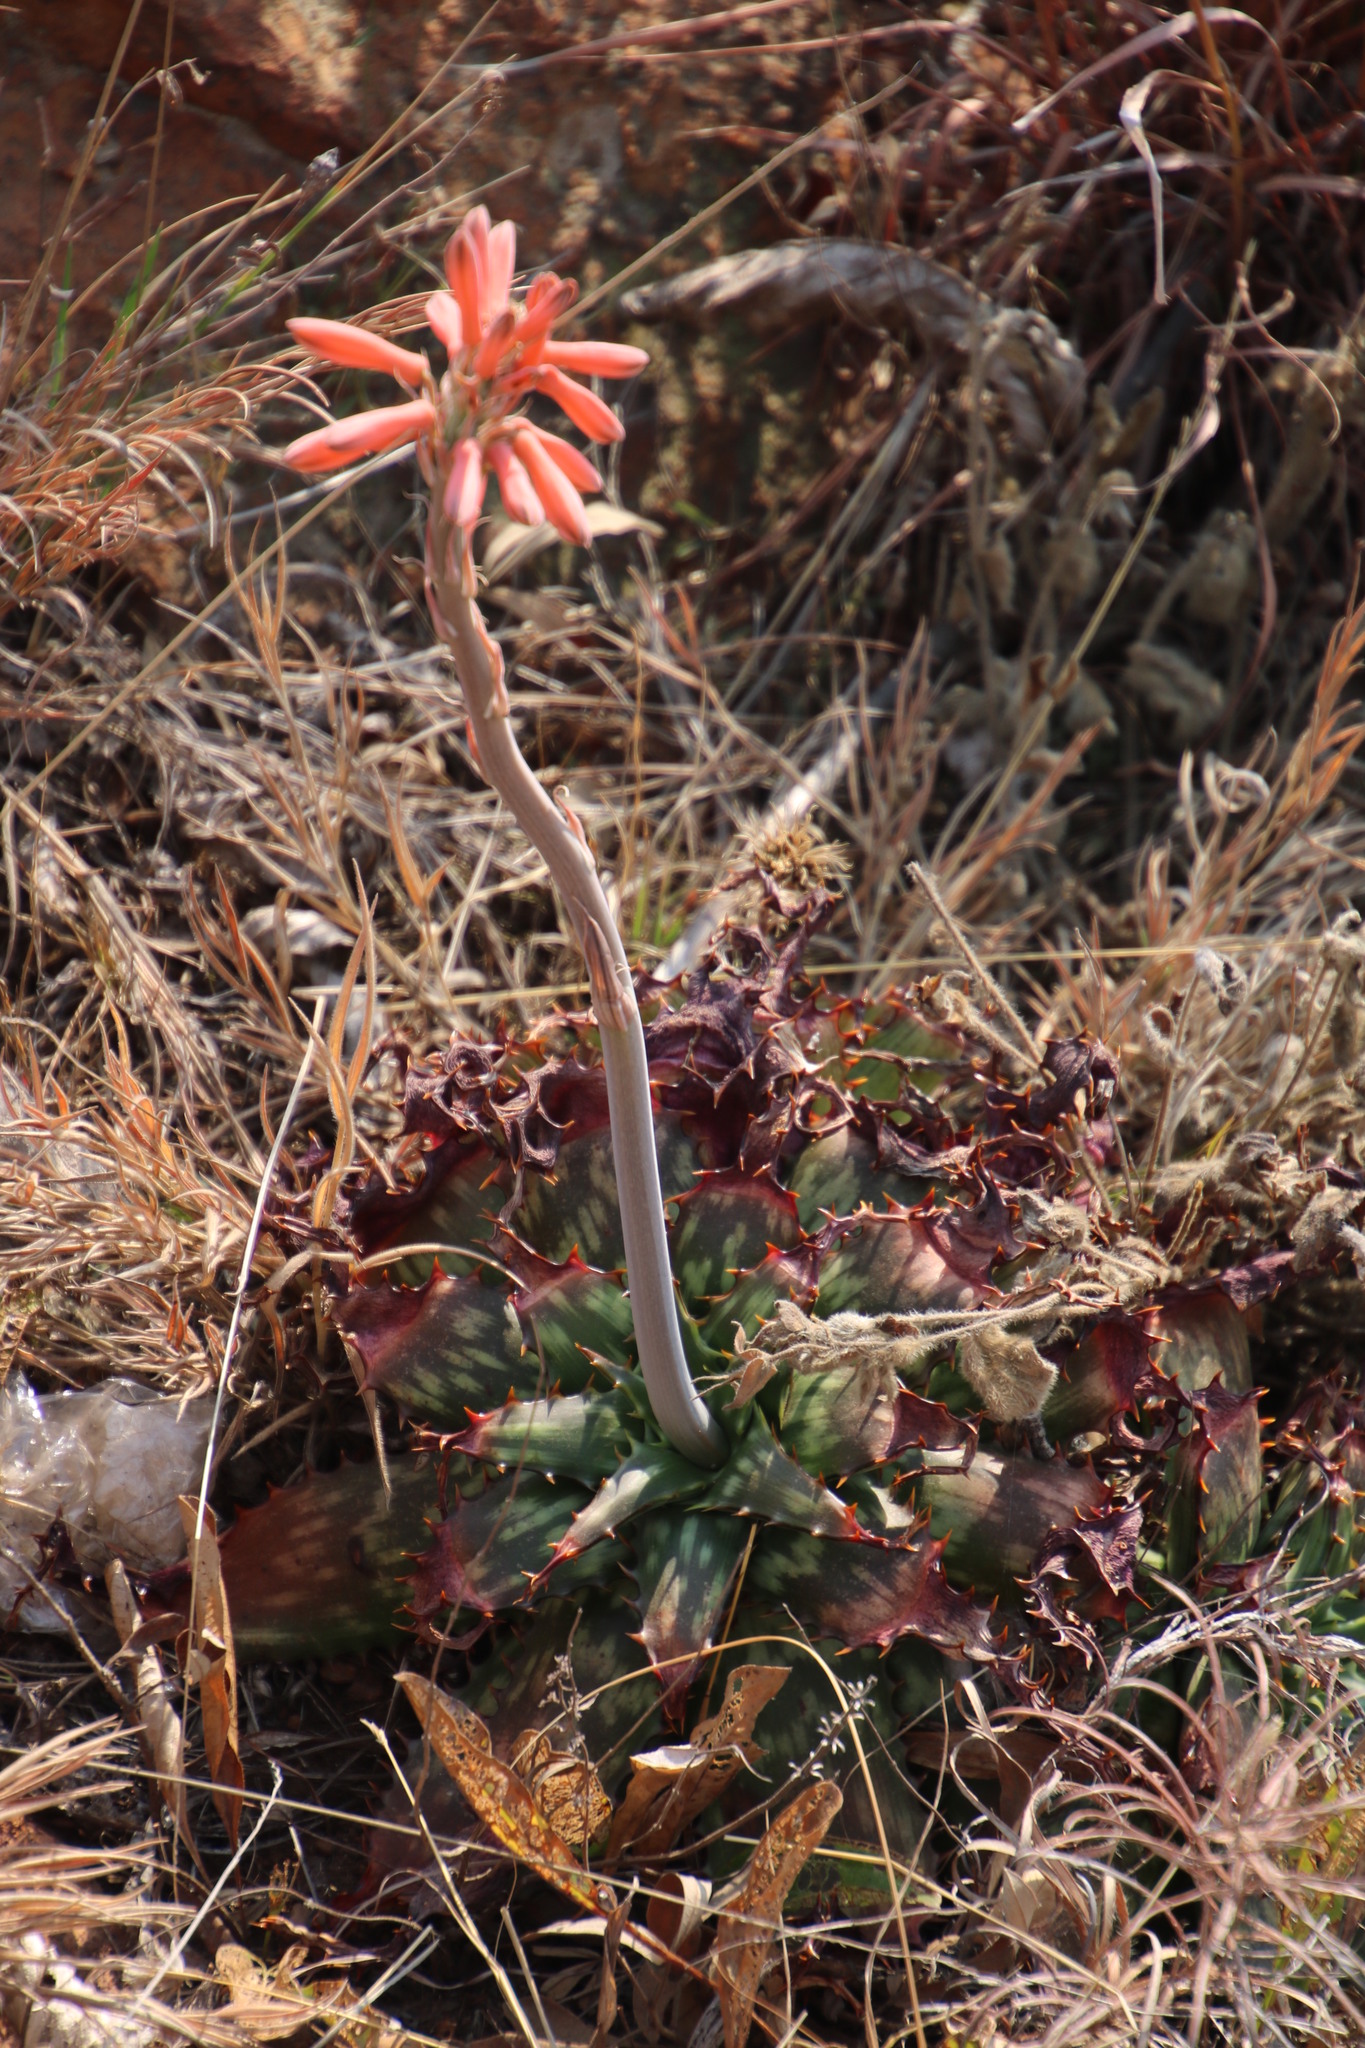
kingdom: Plantae
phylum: Tracheophyta
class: Liliopsida
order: Asparagales
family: Asphodelaceae
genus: Aloe
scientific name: Aloe davyana
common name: Spotted aloe
